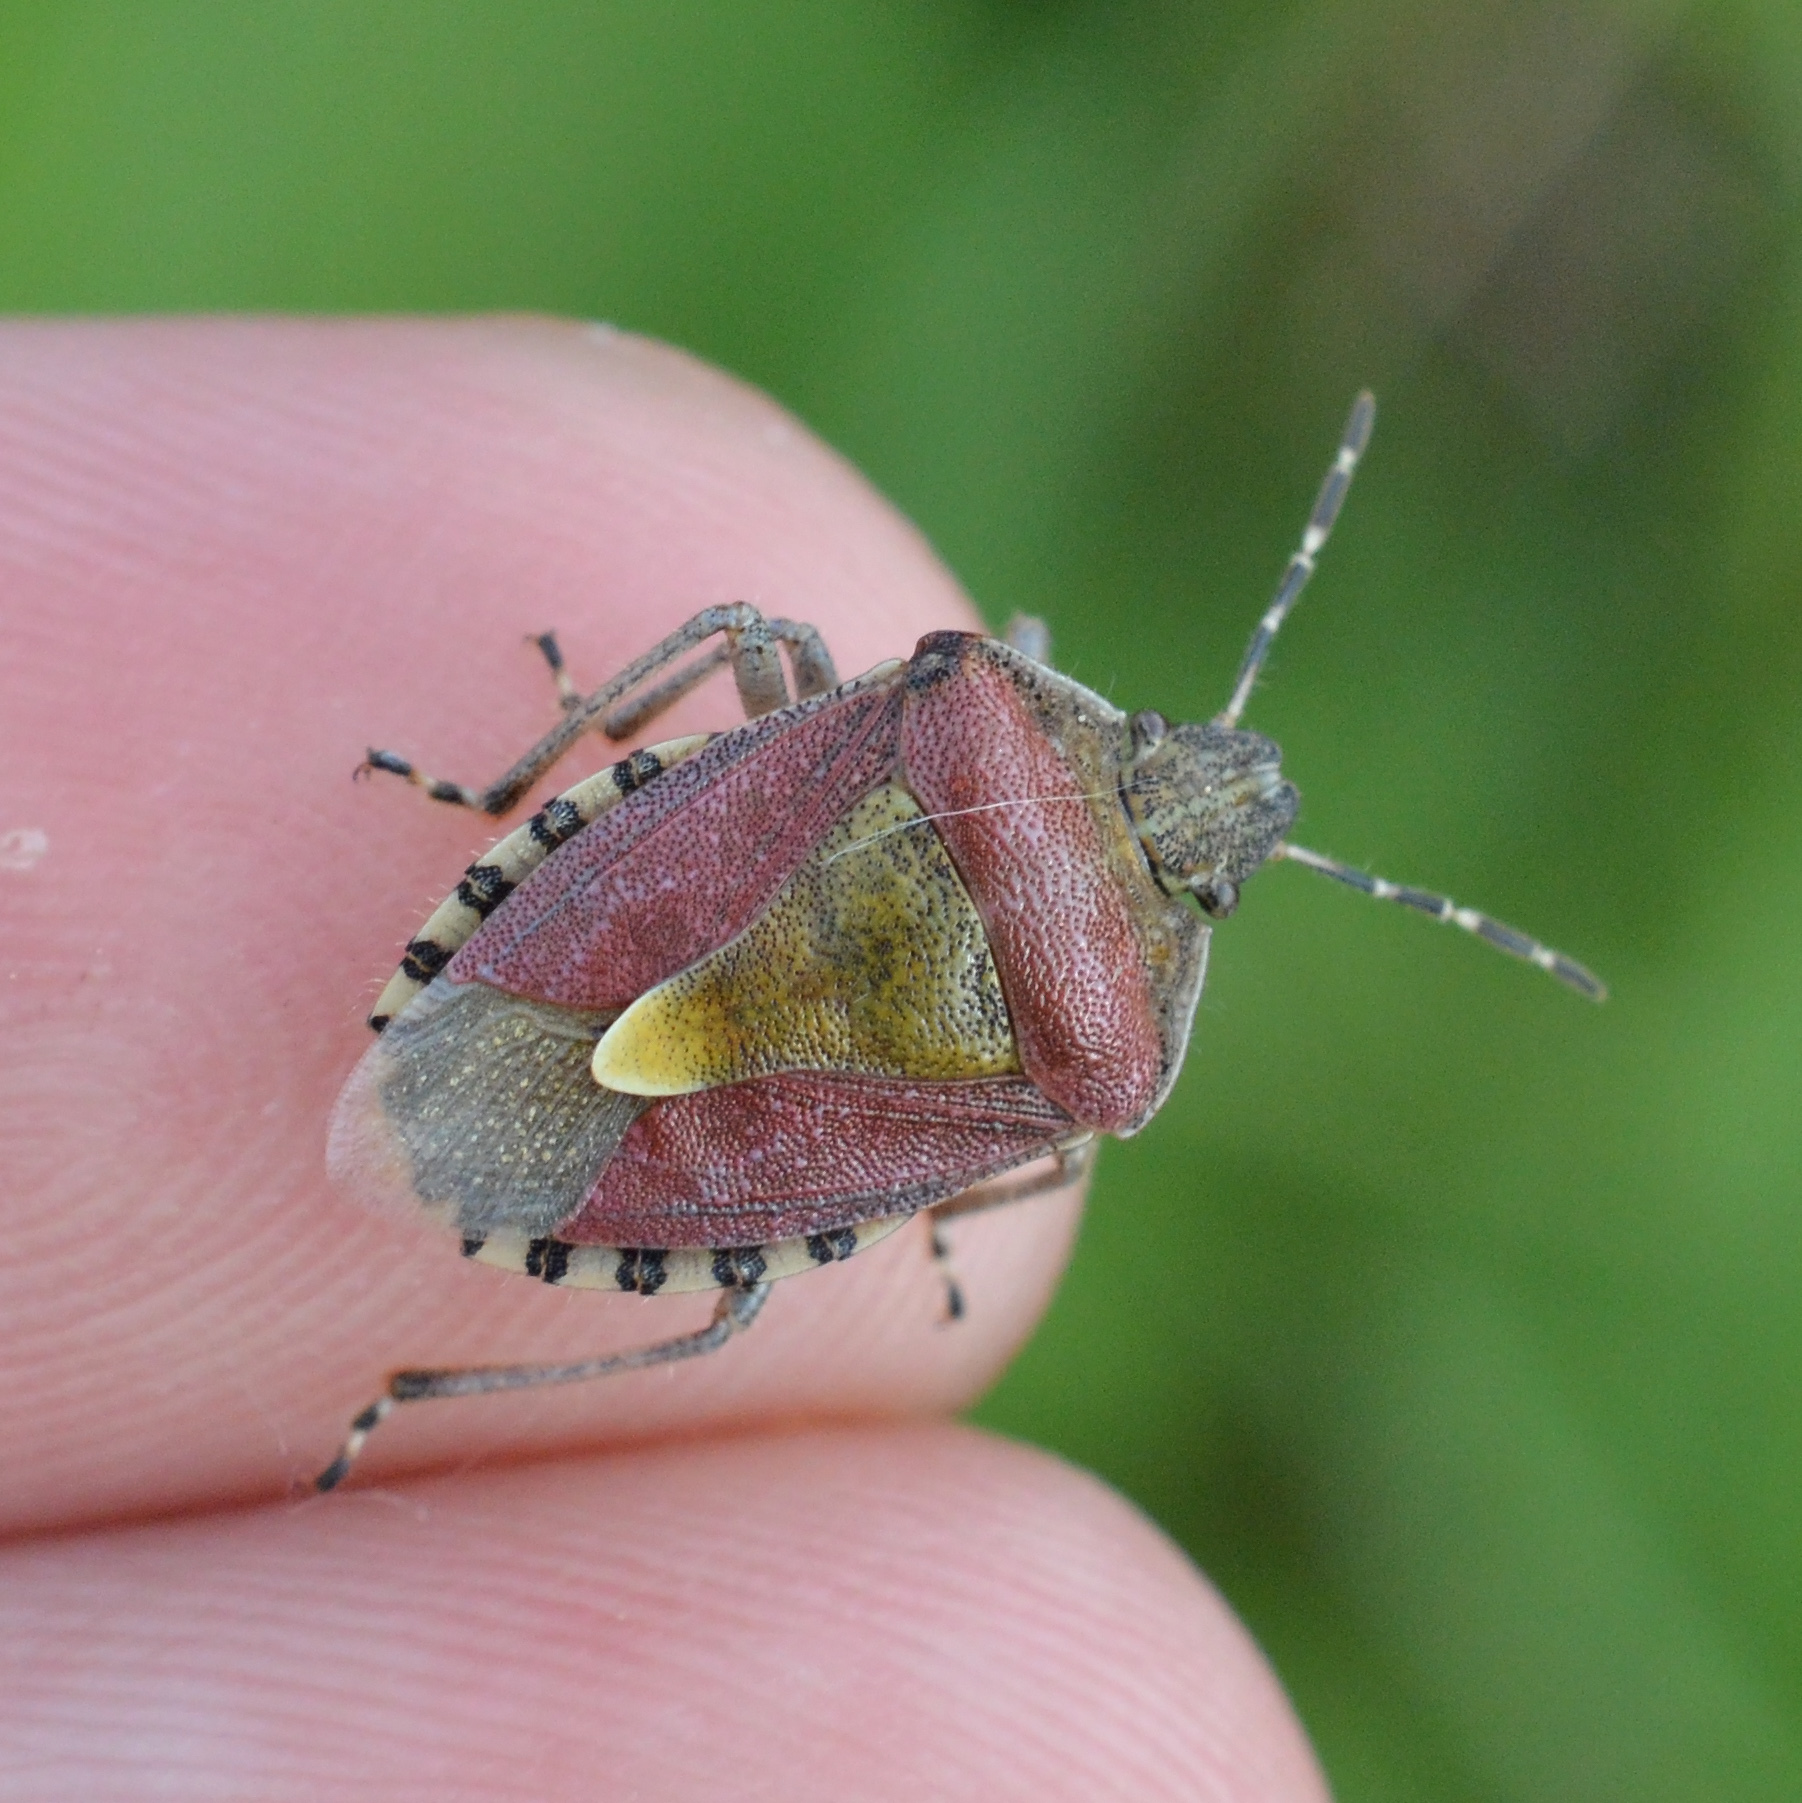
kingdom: Animalia
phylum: Arthropoda
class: Insecta
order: Hemiptera
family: Pentatomidae
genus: Dolycoris
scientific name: Dolycoris baccarum
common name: Sloe bug
